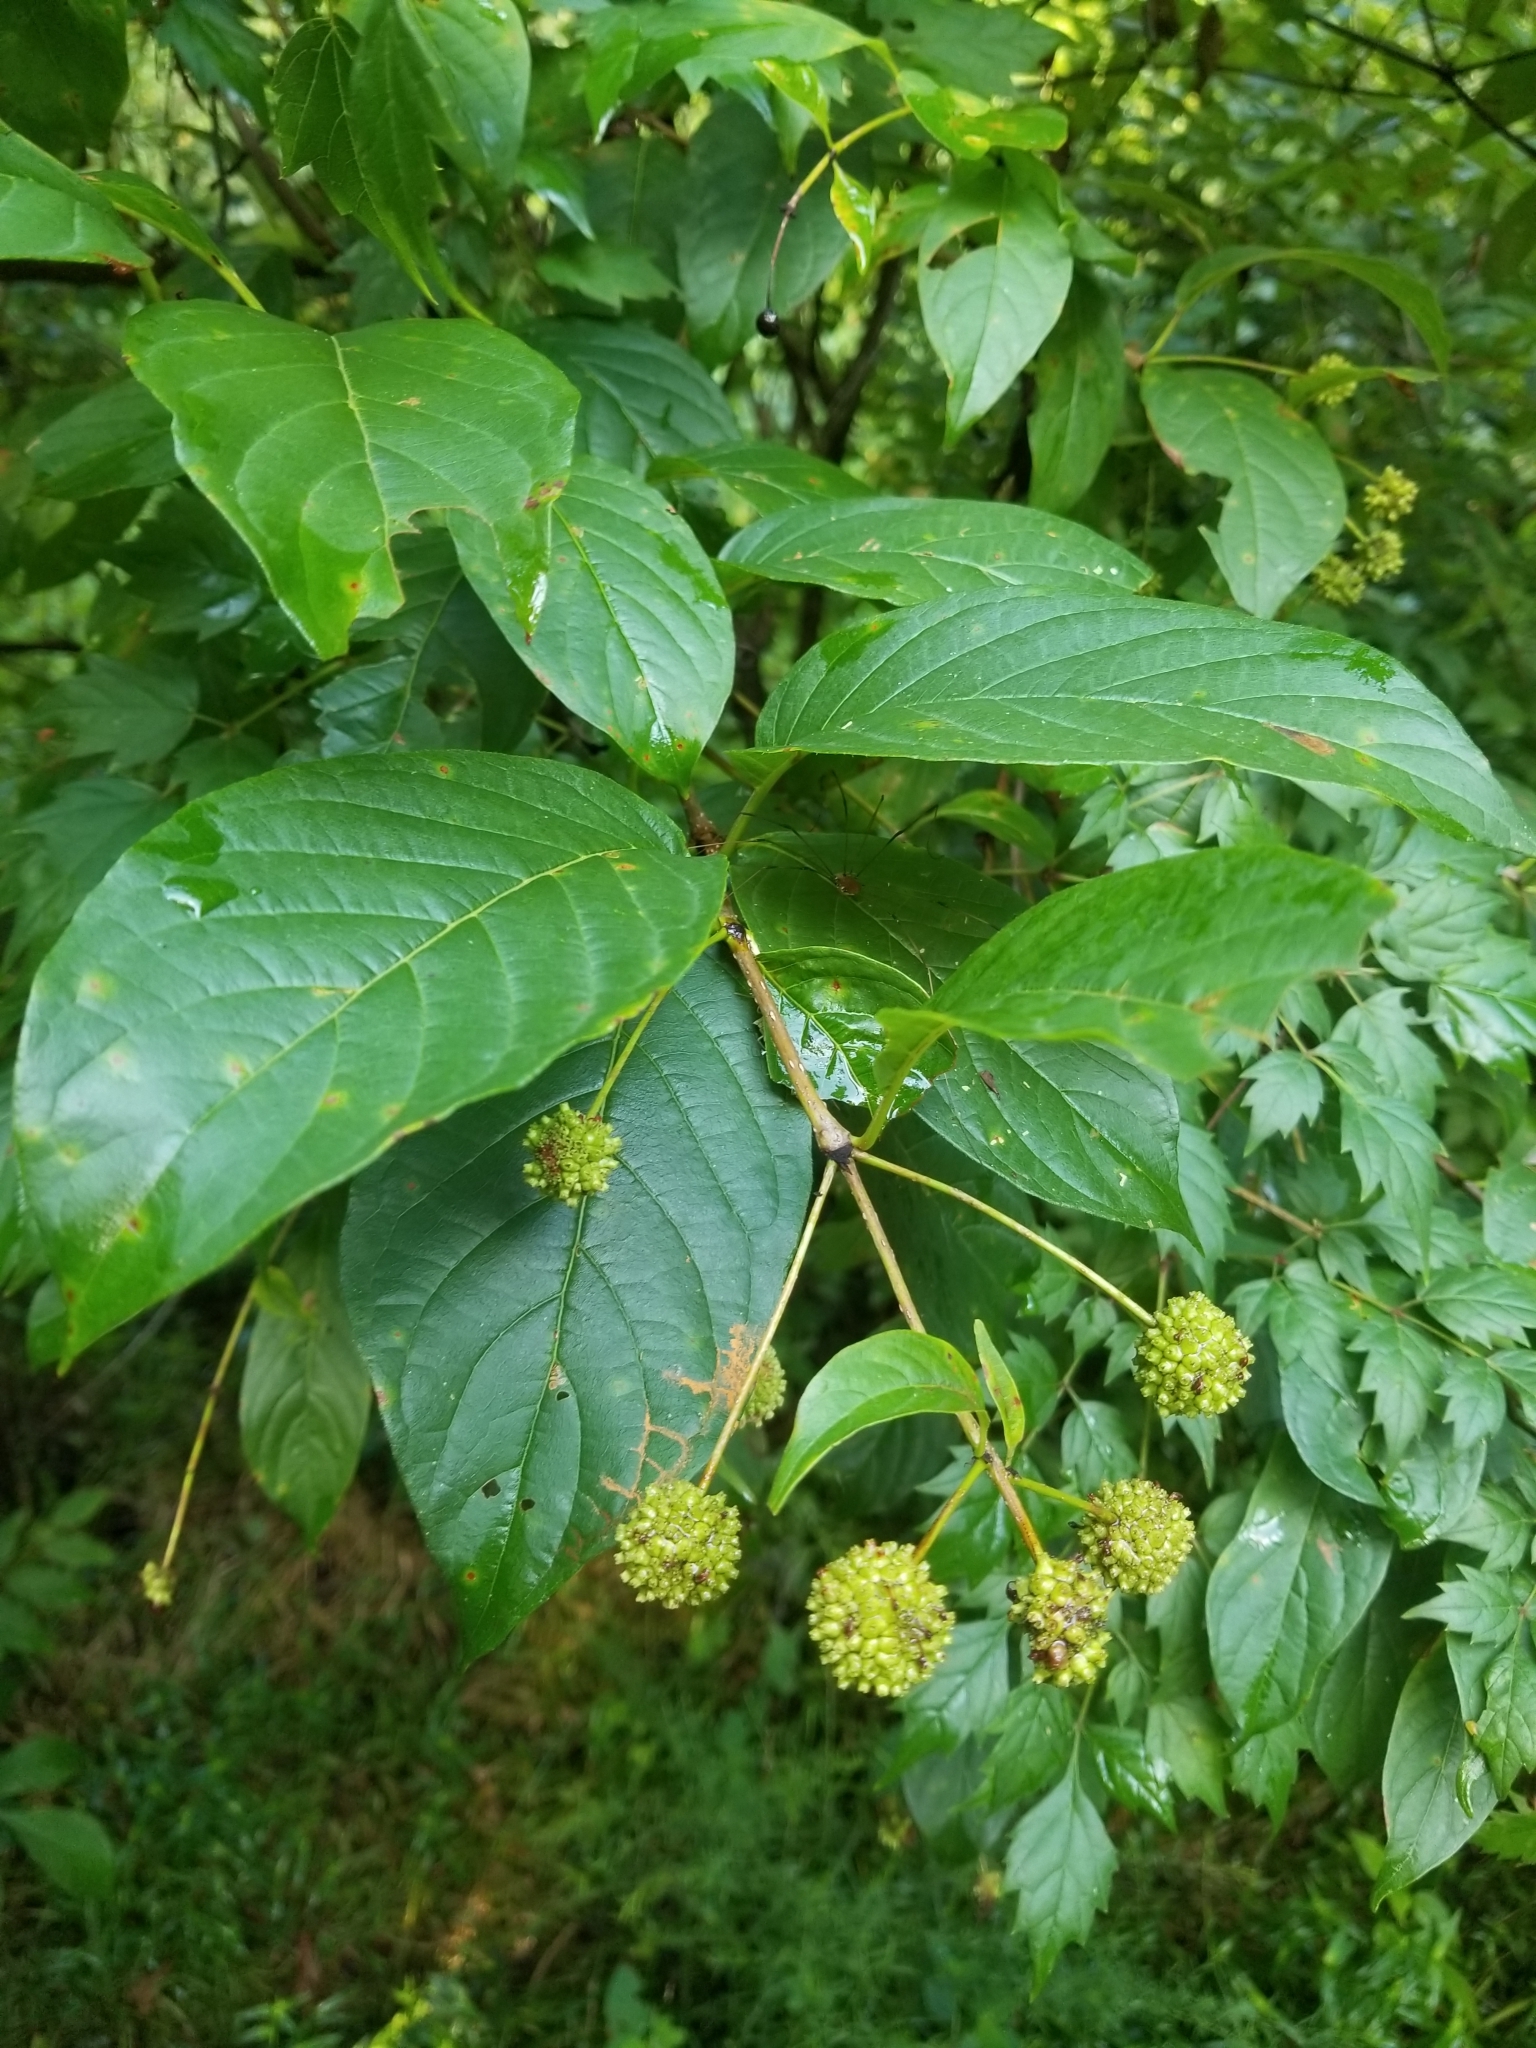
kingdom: Plantae
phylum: Tracheophyta
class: Magnoliopsida
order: Gentianales
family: Rubiaceae
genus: Cephalanthus
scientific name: Cephalanthus occidentalis
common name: Button-willow
